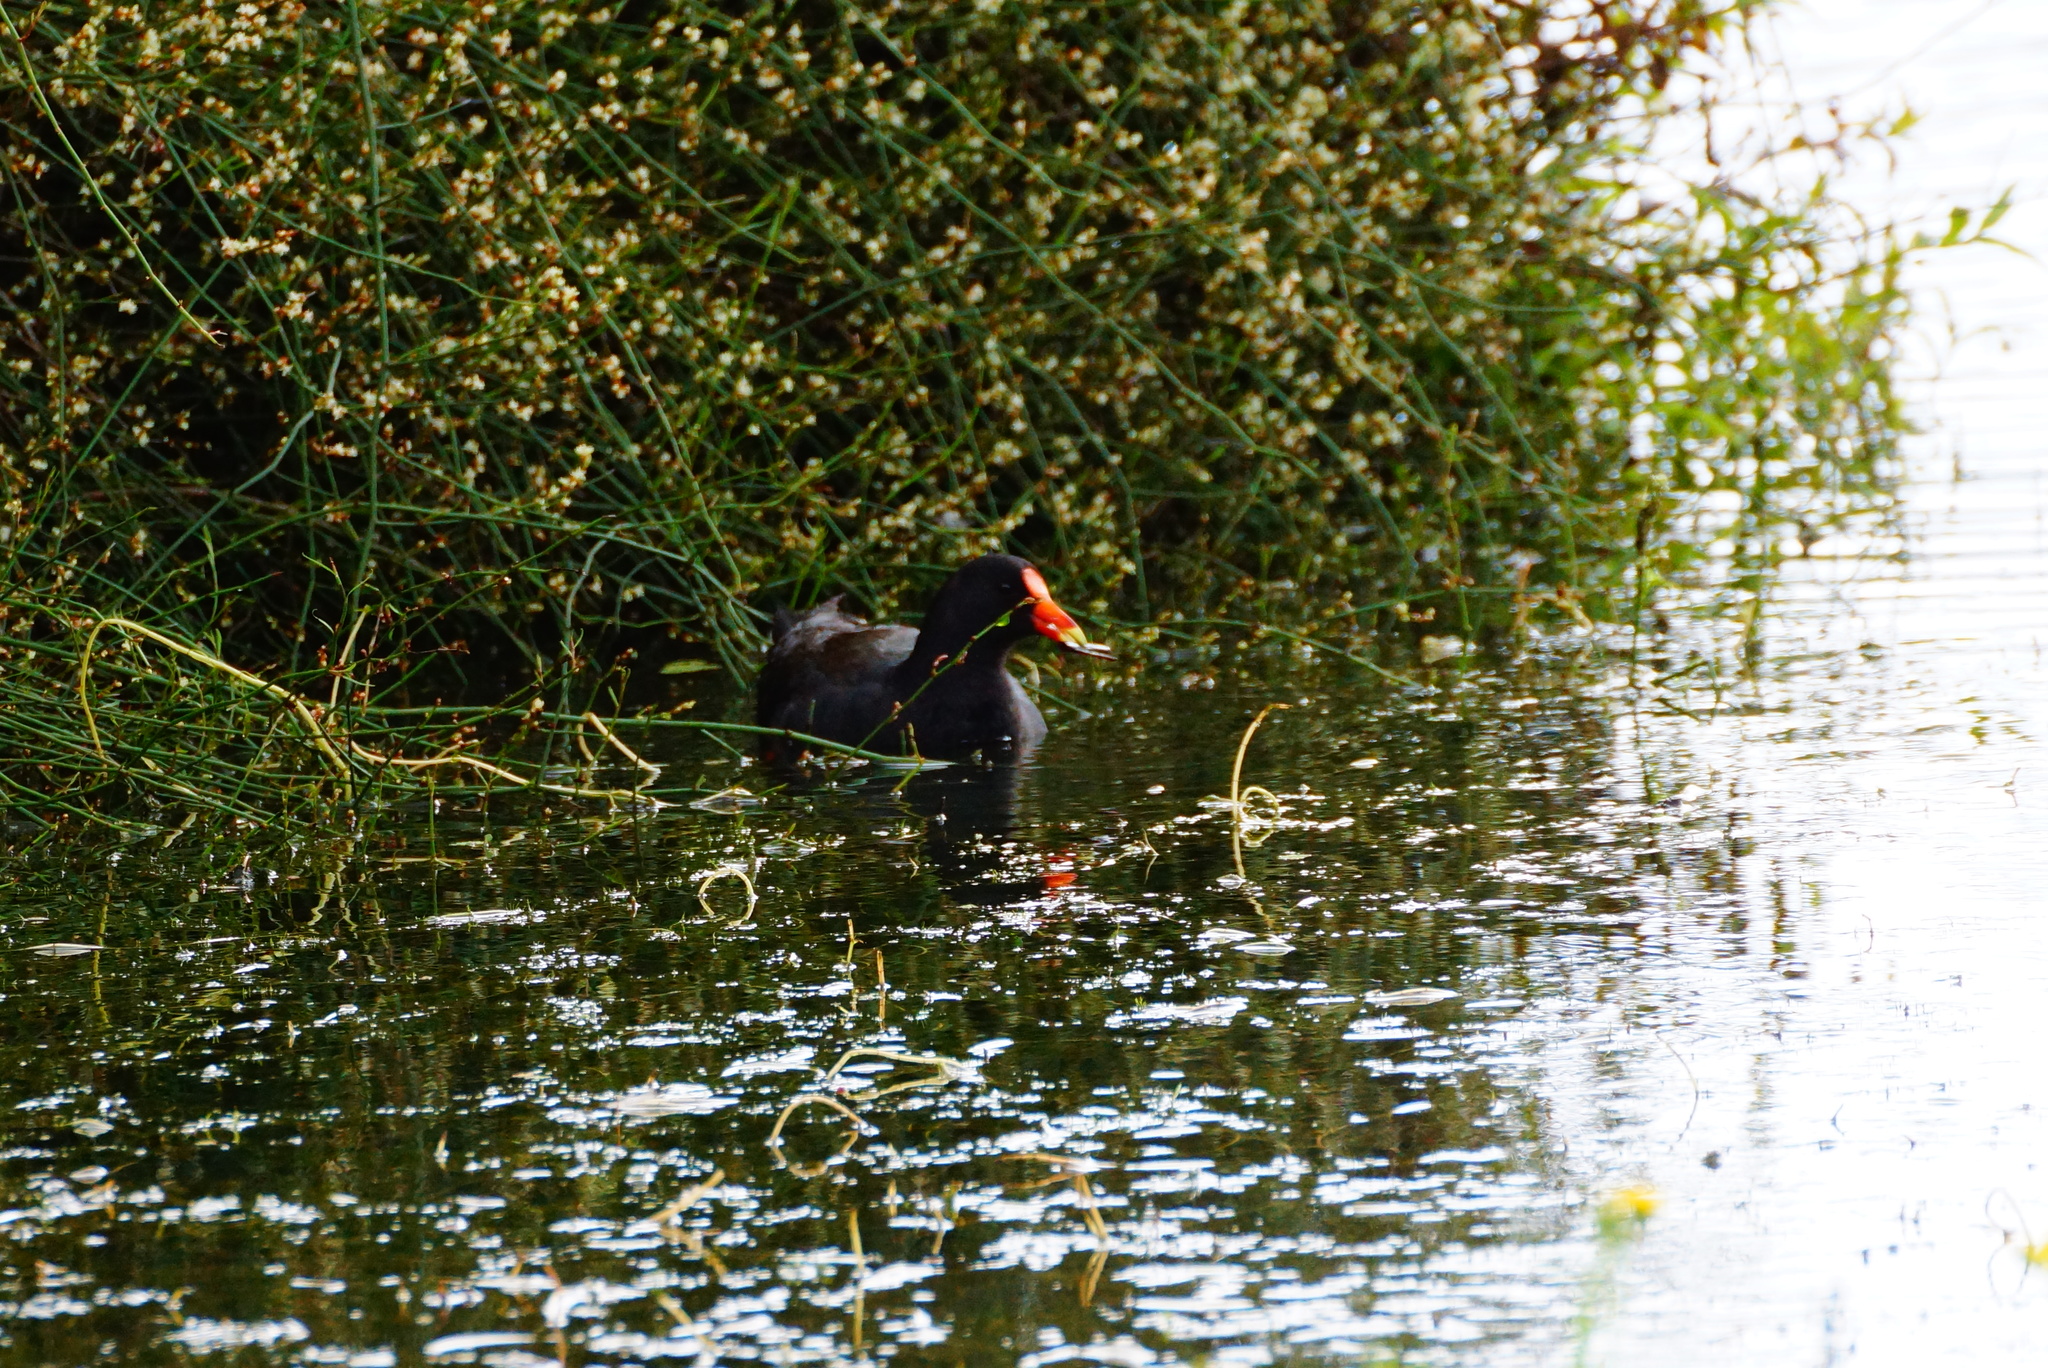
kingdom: Animalia
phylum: Chordata
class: Aves
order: Gruiformes
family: Rallidae
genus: Gallinula
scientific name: Gallinula tenebrosa
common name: Dusky moorhen
